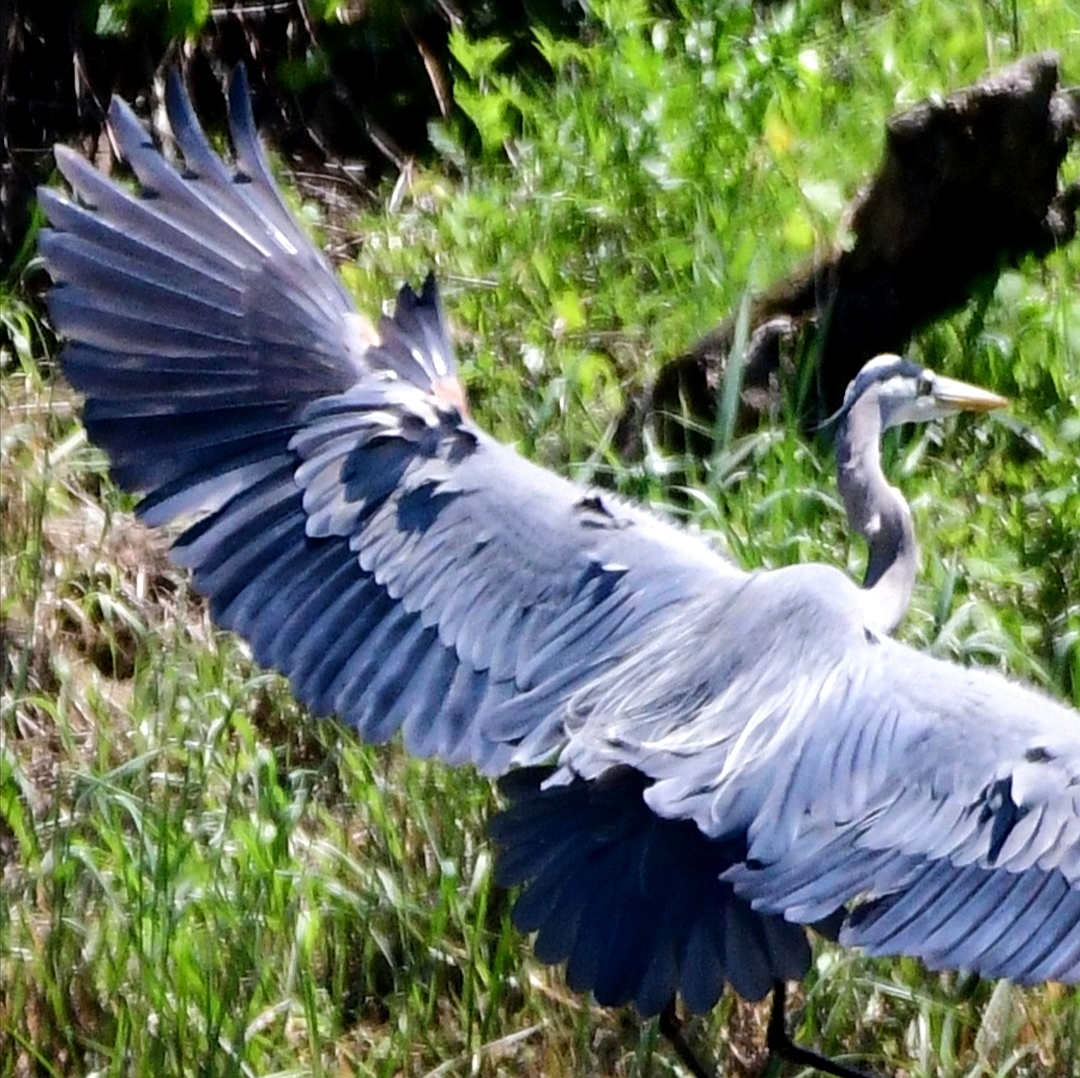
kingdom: Animalia
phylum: Chordata
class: Aves
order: Pelecaniformes
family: Ardeidae
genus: Ardea
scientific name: Ardea herodias
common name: Great blue heron
